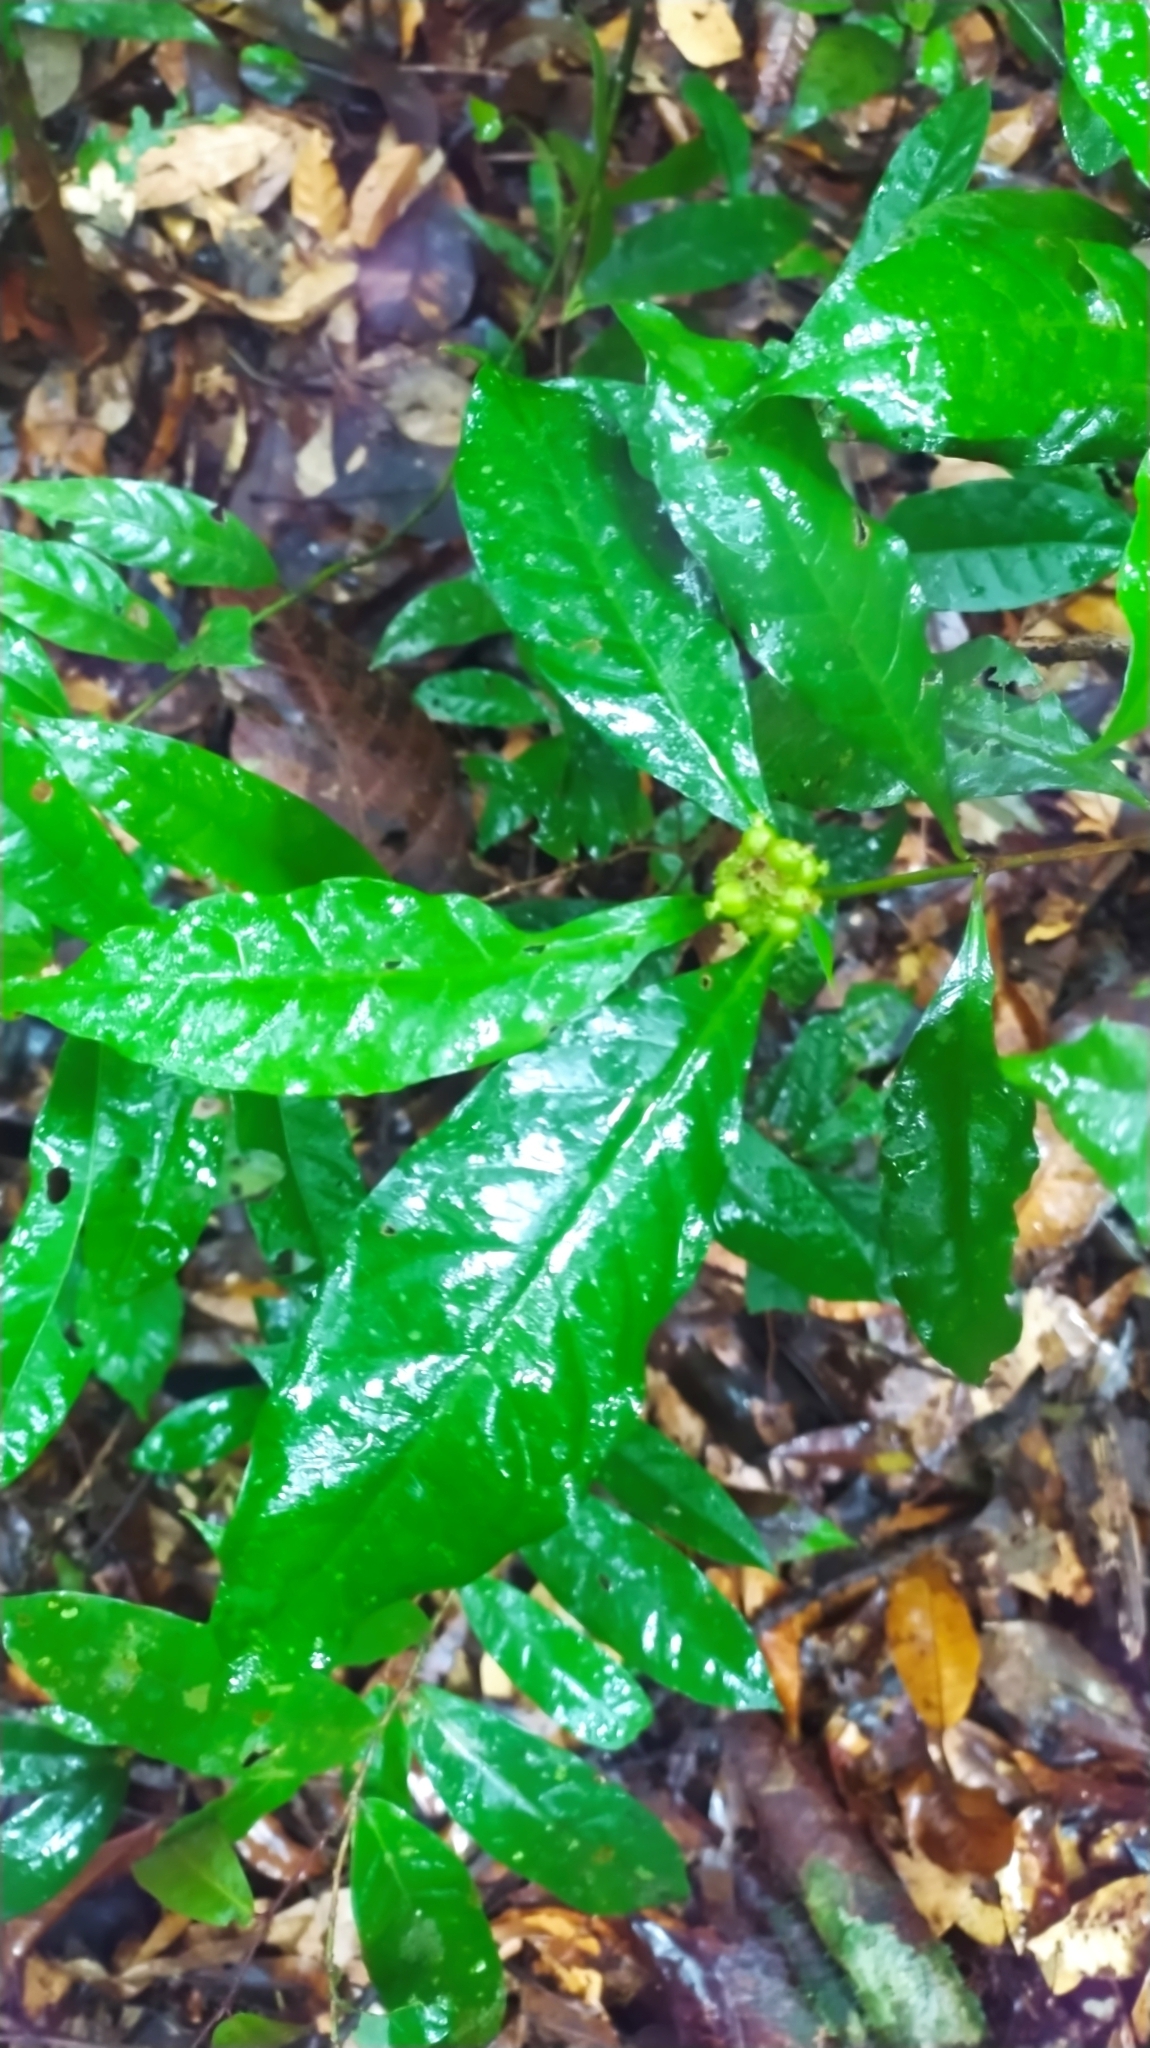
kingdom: Plantae
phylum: Tracheophyta
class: Magnoliopsida
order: Gentianales
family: Rubiaceae
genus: Eumachia
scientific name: Eumachia guianensis
